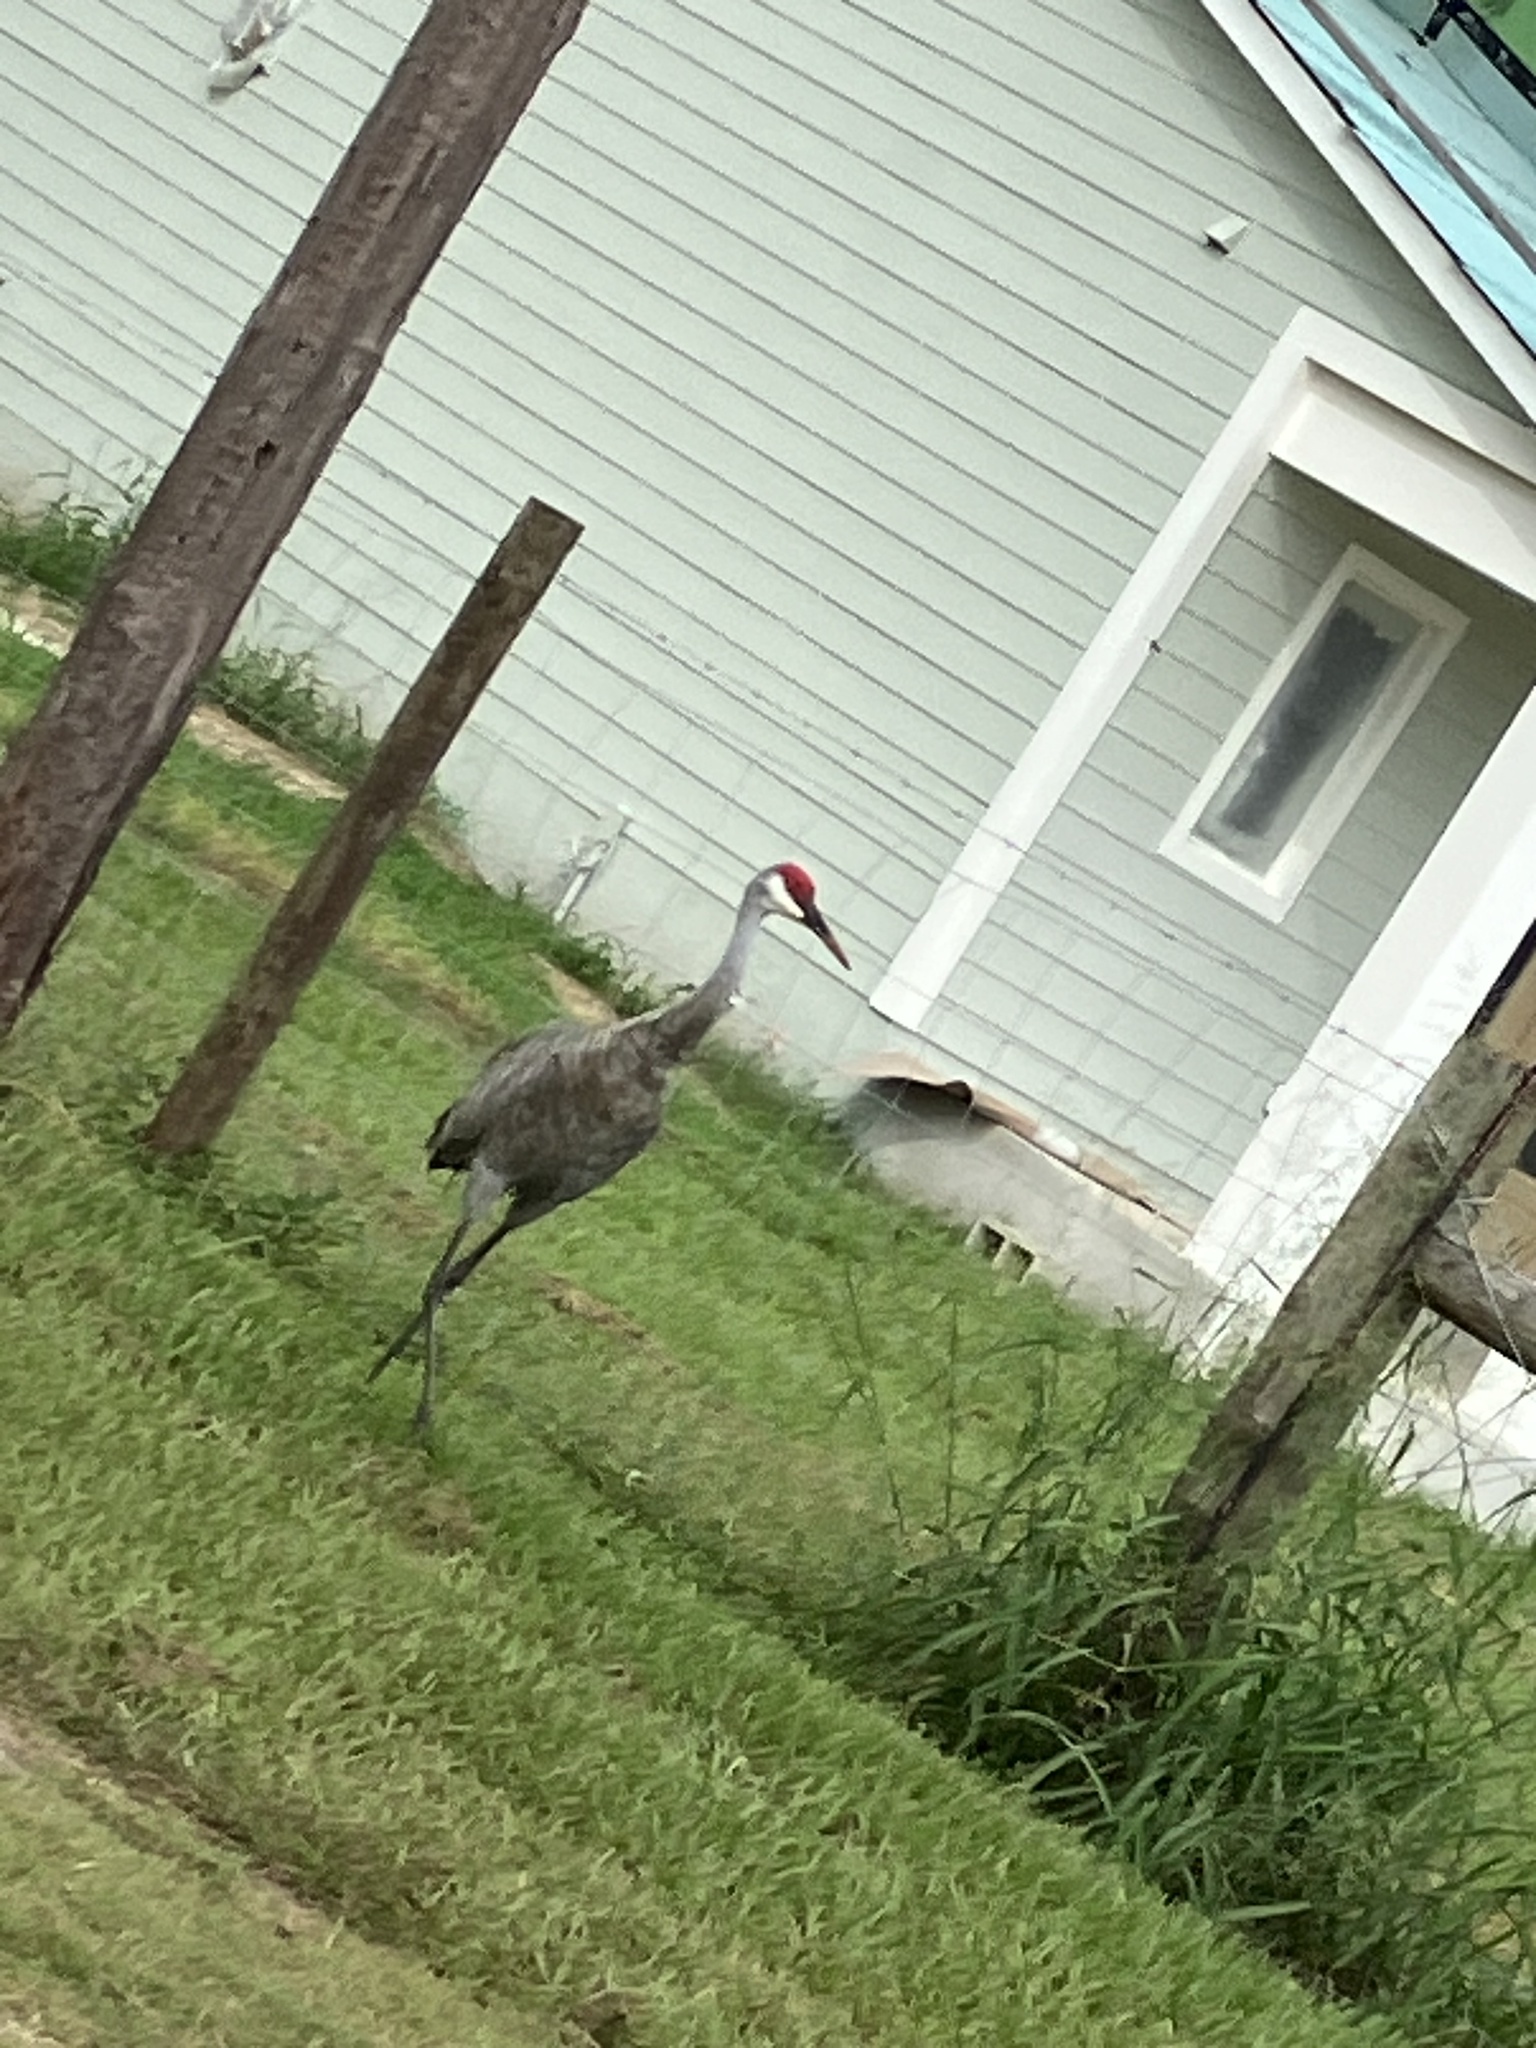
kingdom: Animalia
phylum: Chordata
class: Aves
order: Gruiformes
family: Gruidae
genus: Grus
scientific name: Grus canadensis
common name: Sandhill crane
